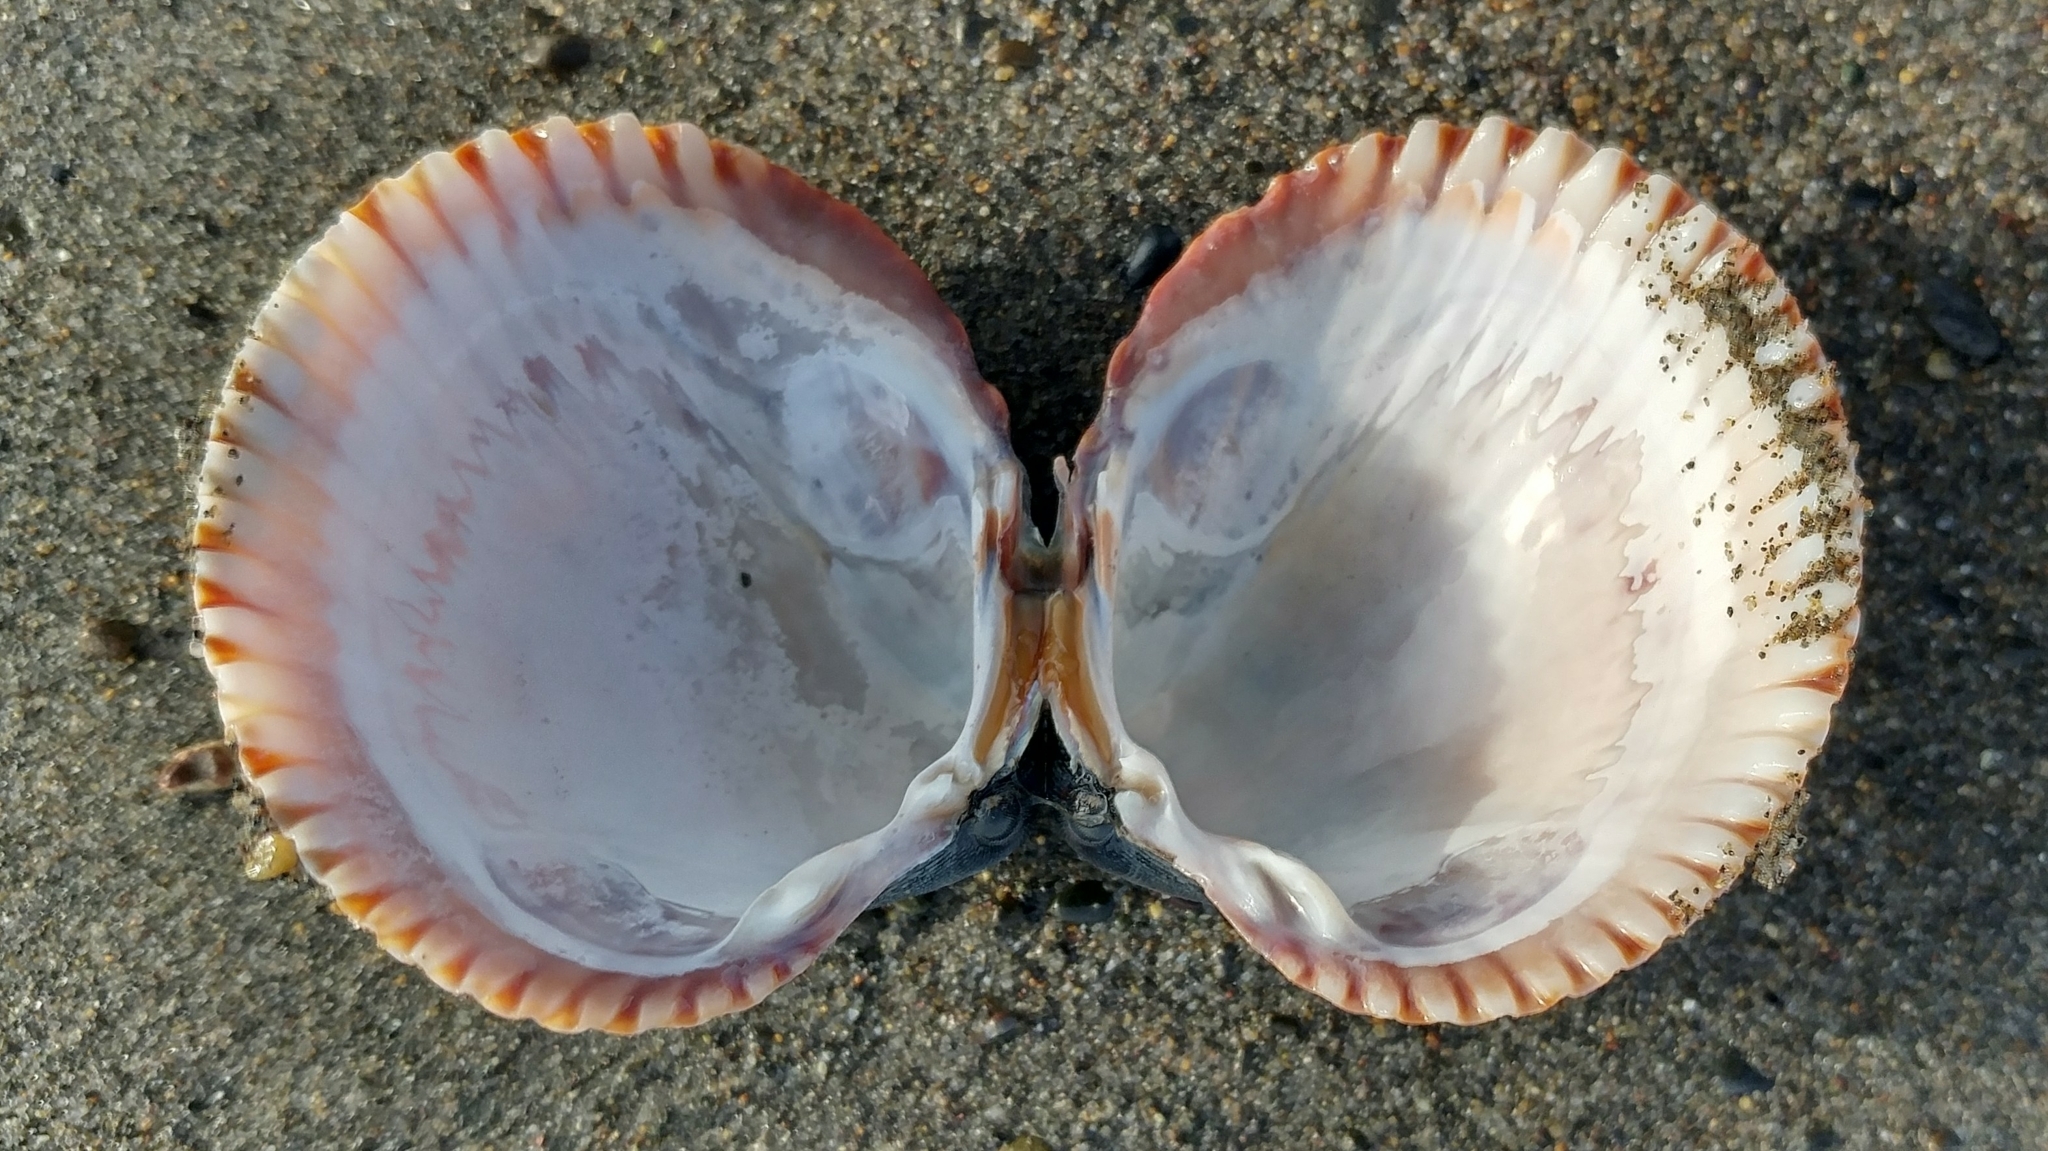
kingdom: Animalia
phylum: Mollusca
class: Bivalvia
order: Cardiida
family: Cardiidae
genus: Clinocardium
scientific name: Clinocardium nuttallii
